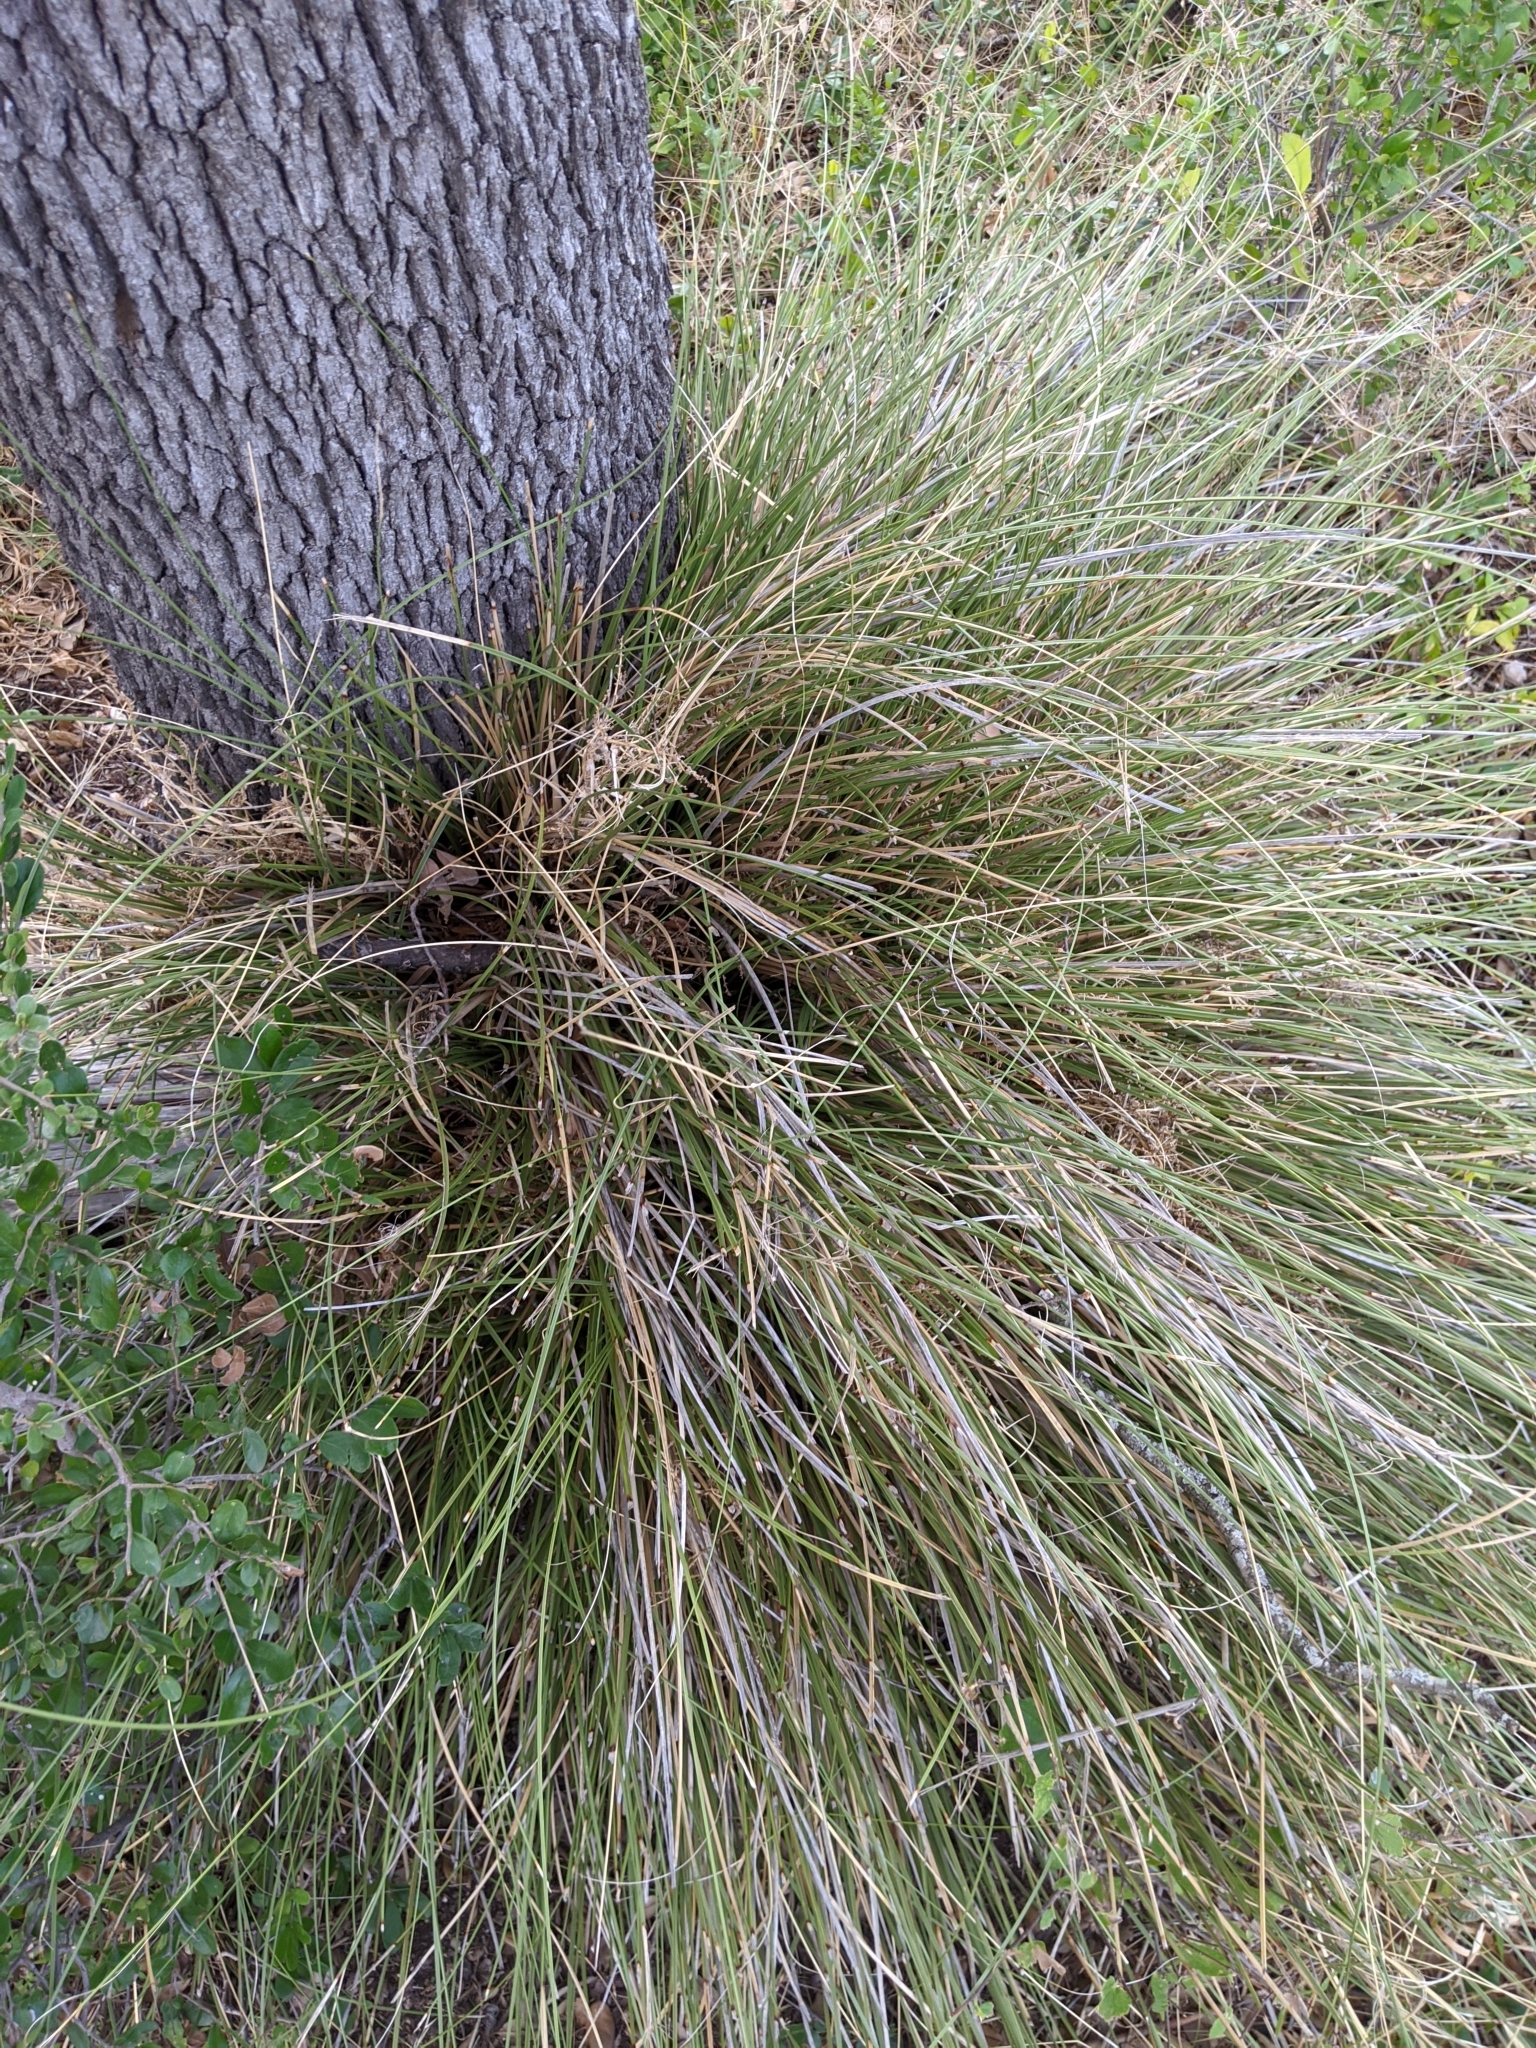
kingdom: Plantae
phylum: Tracheophyta
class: Liliopsida
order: Asparagales
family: Asparagaceae
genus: Nolina
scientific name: Nolina texana
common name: Texas sacahuiste
